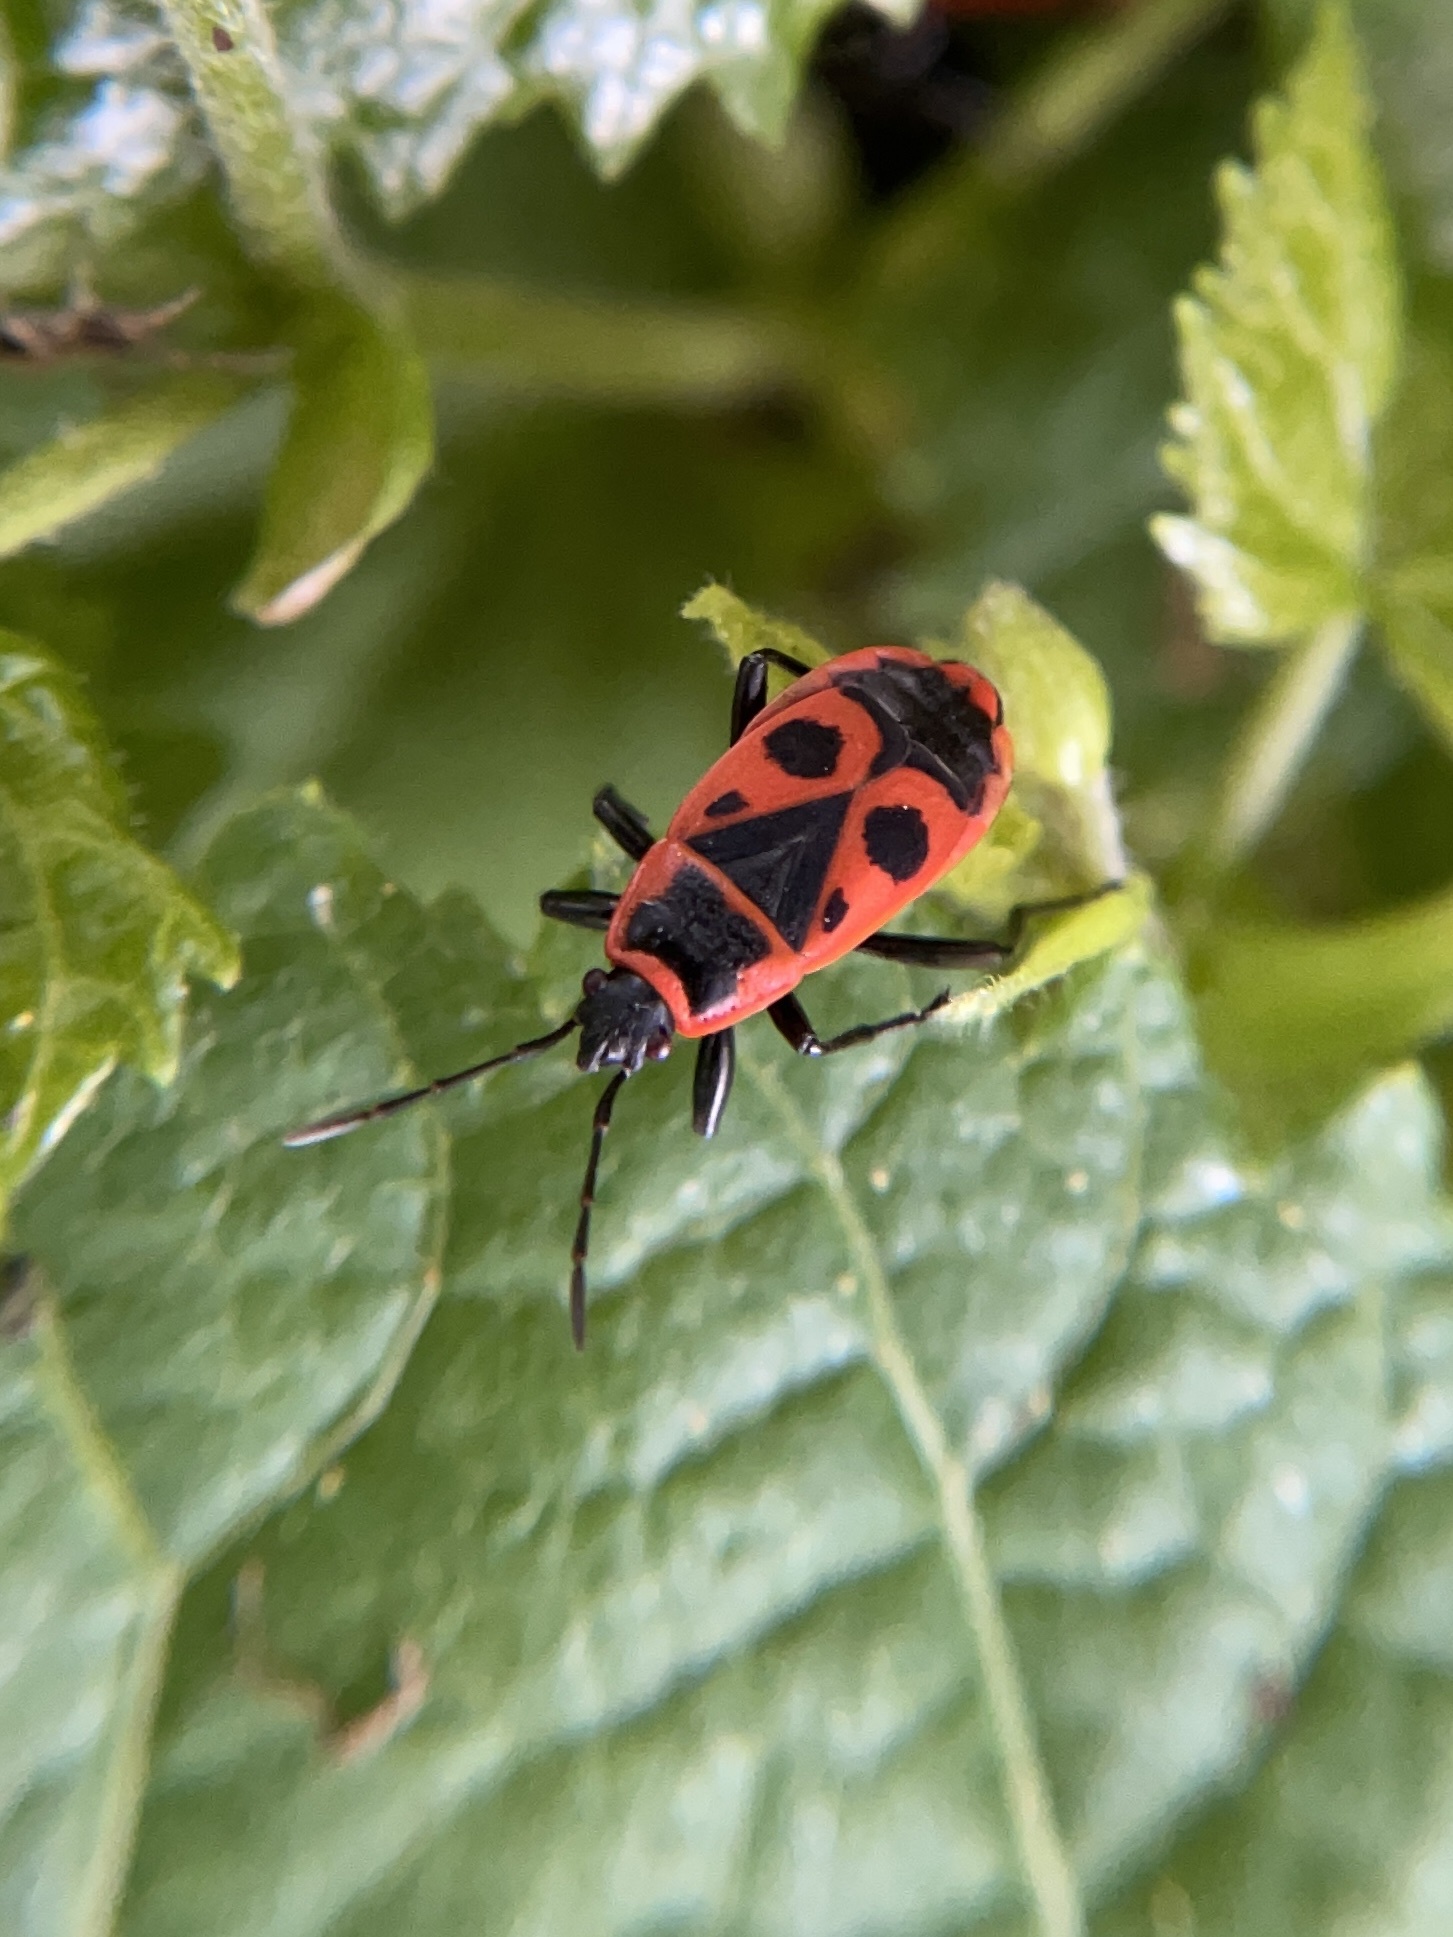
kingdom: Animalia
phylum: Arthropoda
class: Insecta
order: Hemiptera
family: Pyrrhocoridae
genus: Pyrrhocoris
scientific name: Pyrrhocoris apterus
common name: Firebug
